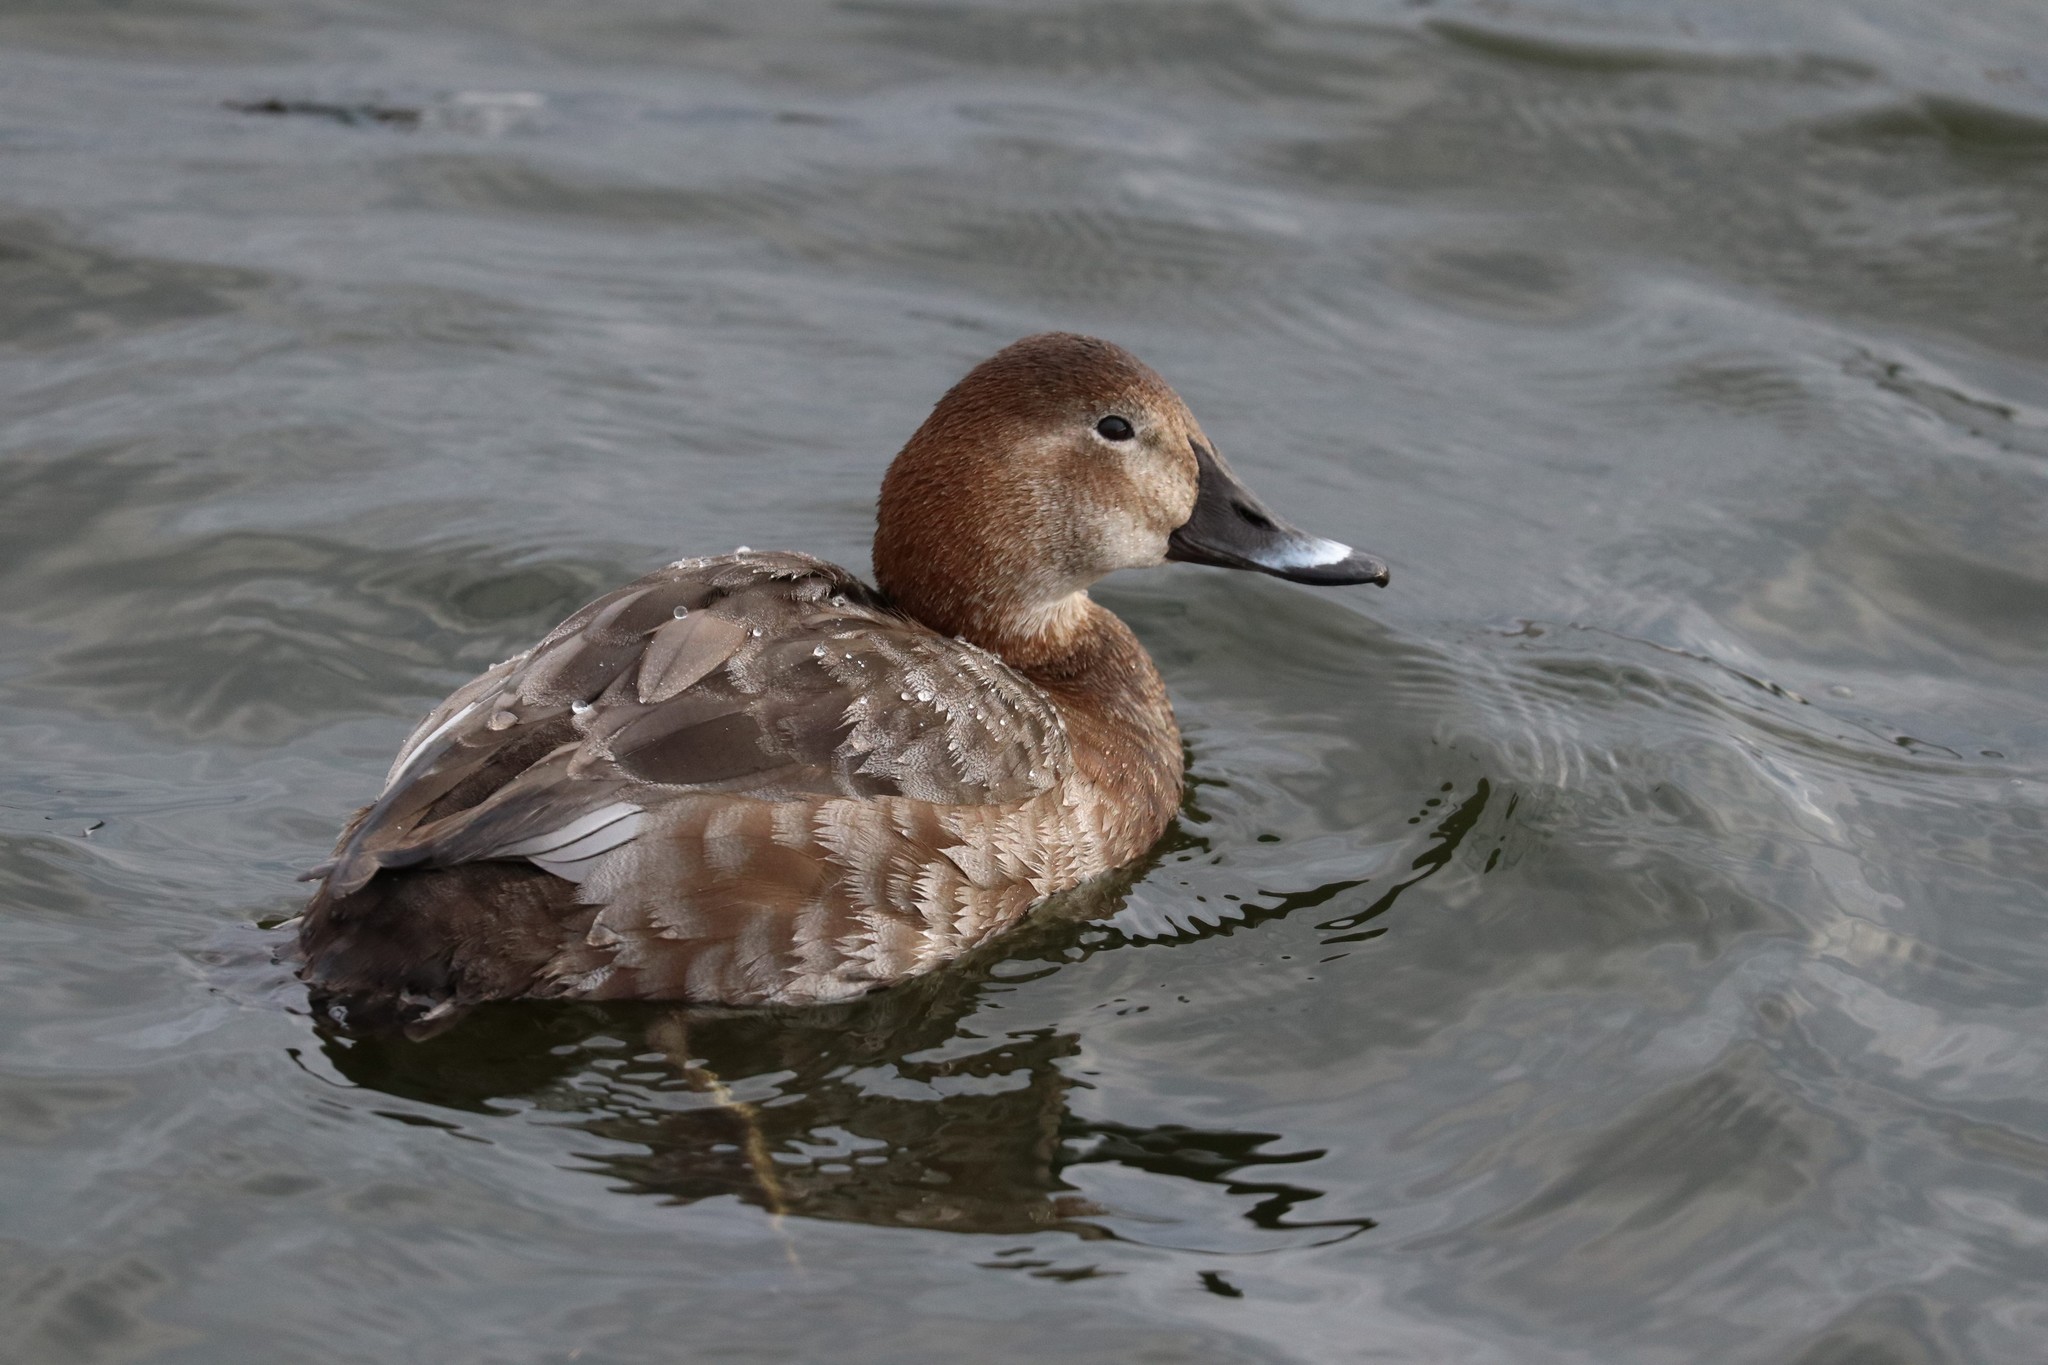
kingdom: Animalia
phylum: Chordata
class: Aves
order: Anseriformes
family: Anatidae
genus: Aythya
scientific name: Aythya ferina
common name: Common pochard
